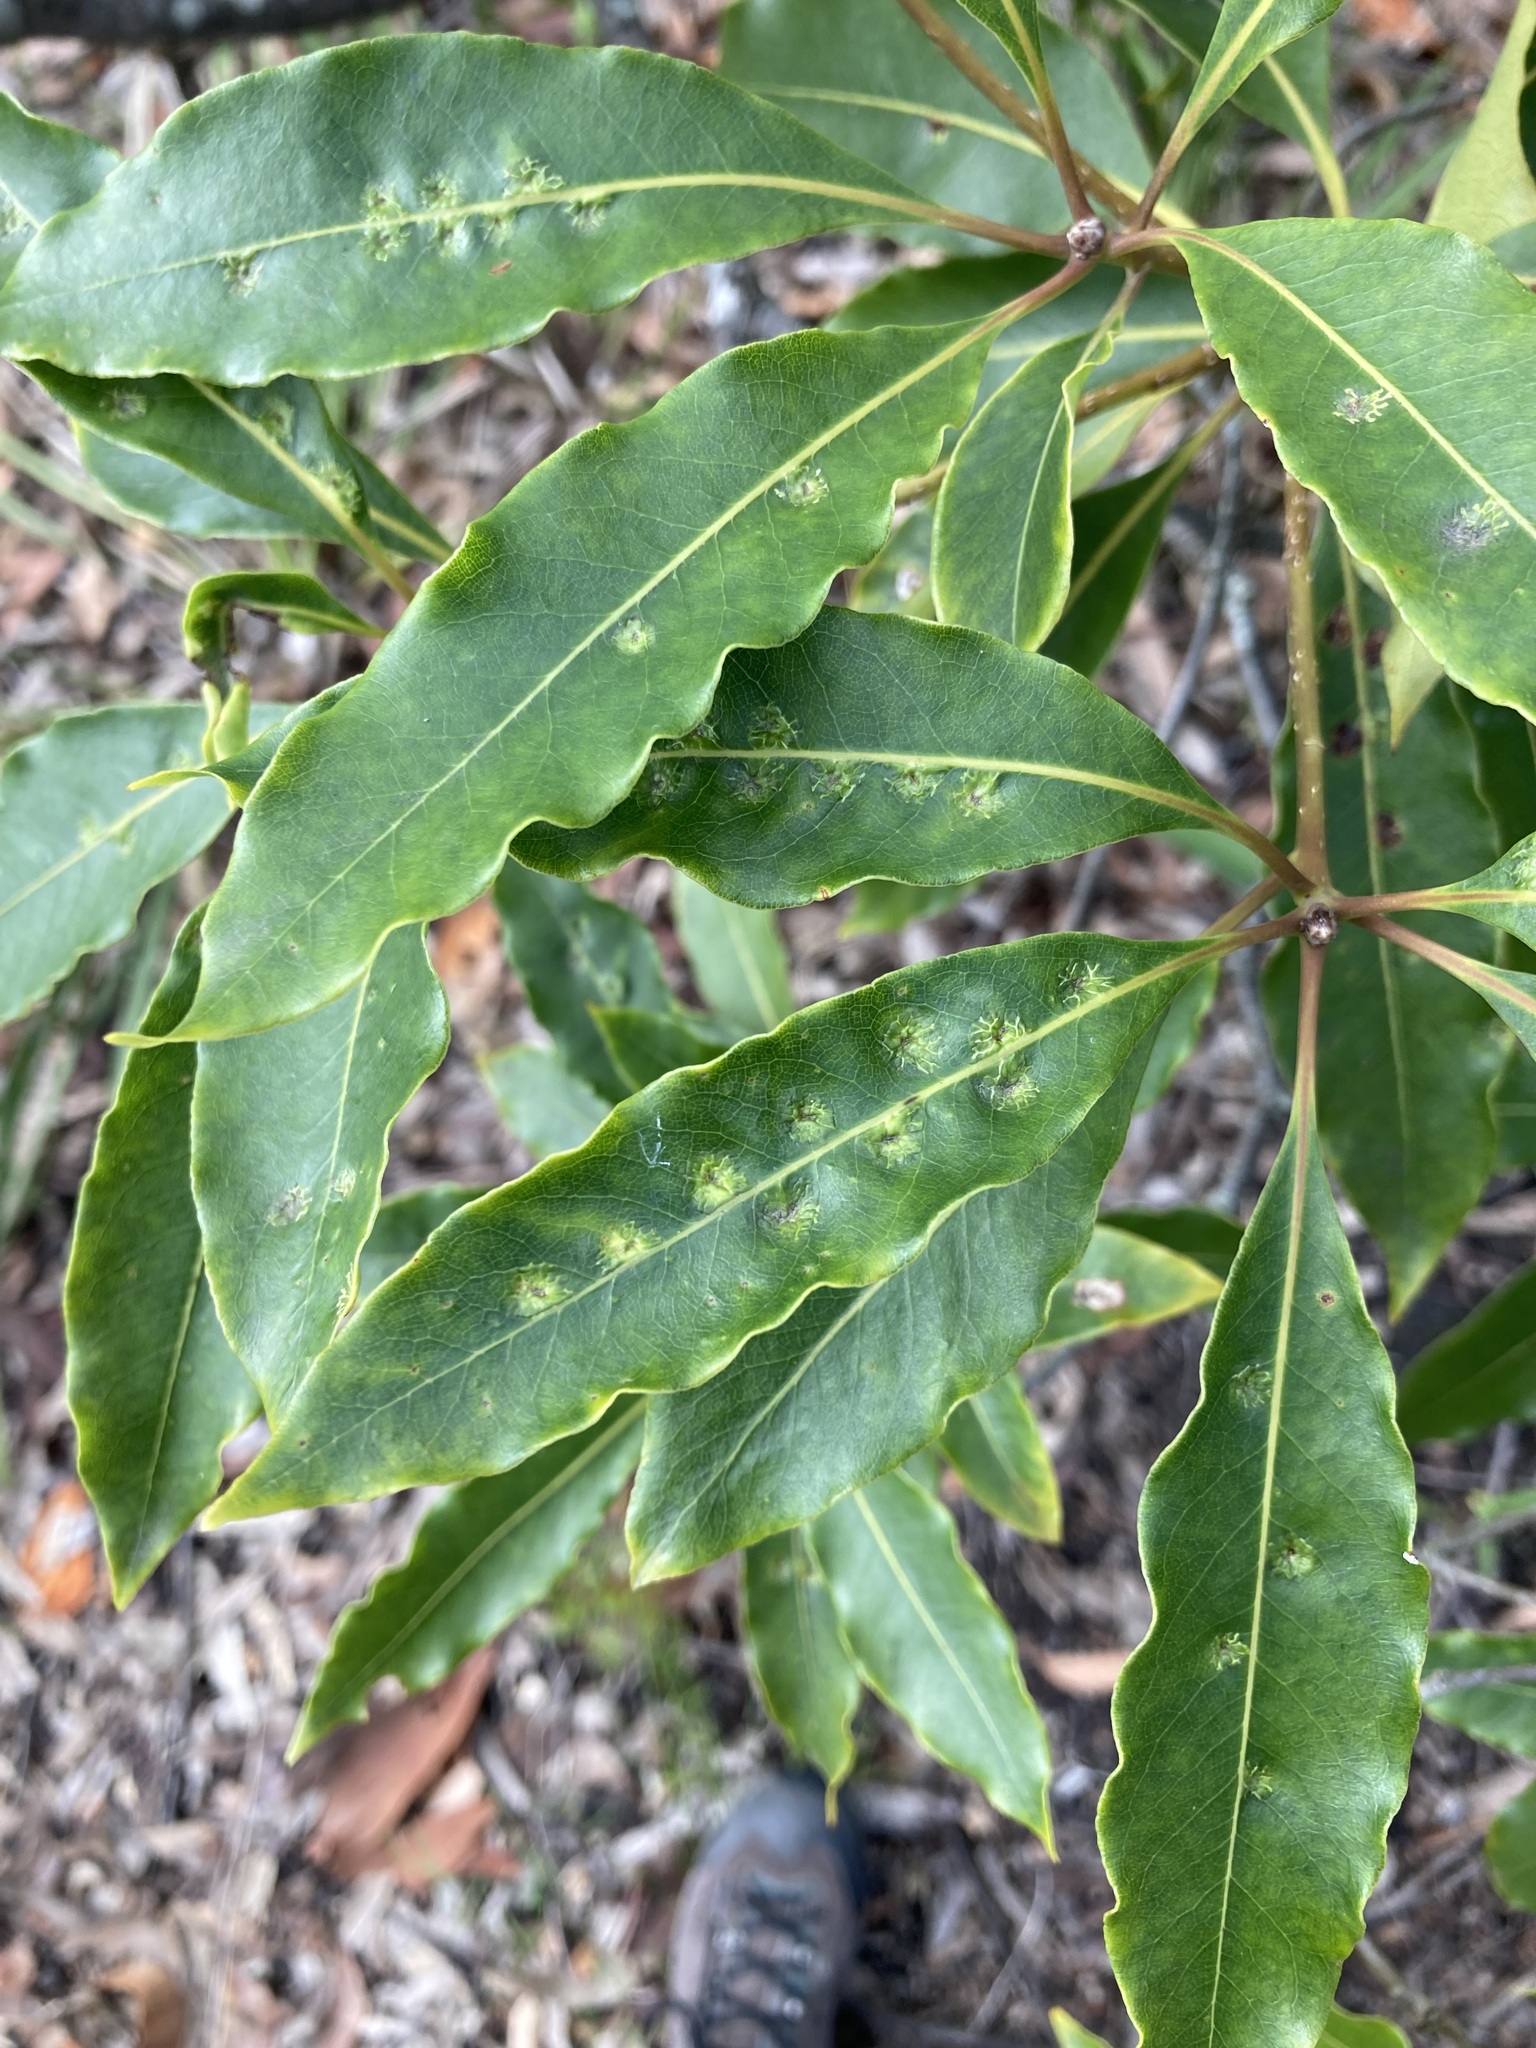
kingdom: Animalia
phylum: Arthropoda
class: Insecta
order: Diptera
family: Agromyzidae
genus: Phytoliriomyza
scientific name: Phytoliriomyza pittosporophylli
